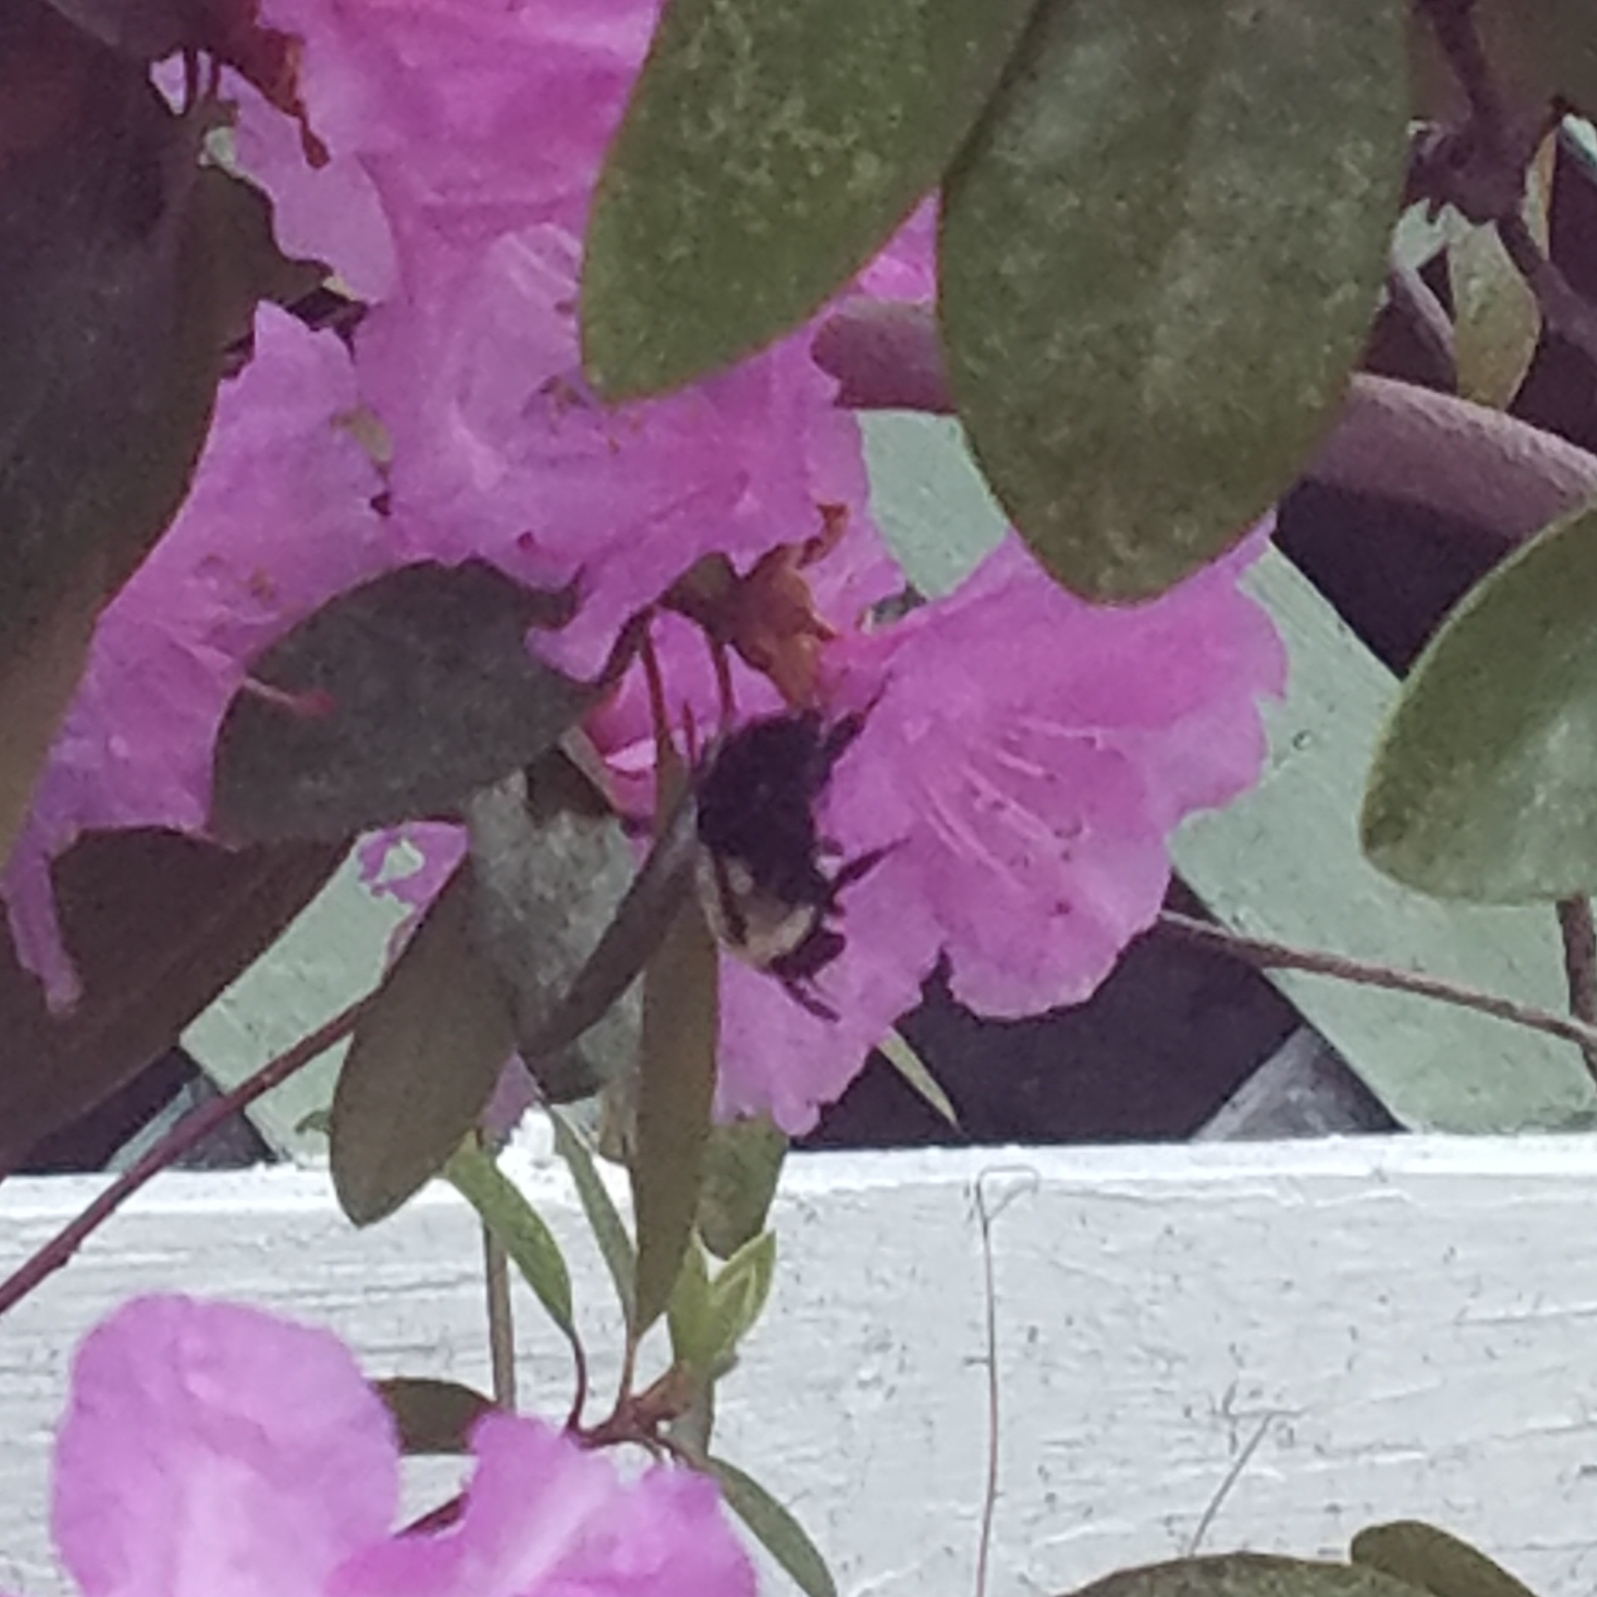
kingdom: Animalia
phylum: Arthropoda
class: Insecta
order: Hymenoptera
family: Apidae
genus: Bombus
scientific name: Bombus impatiens
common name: Common eastern bumble bee
